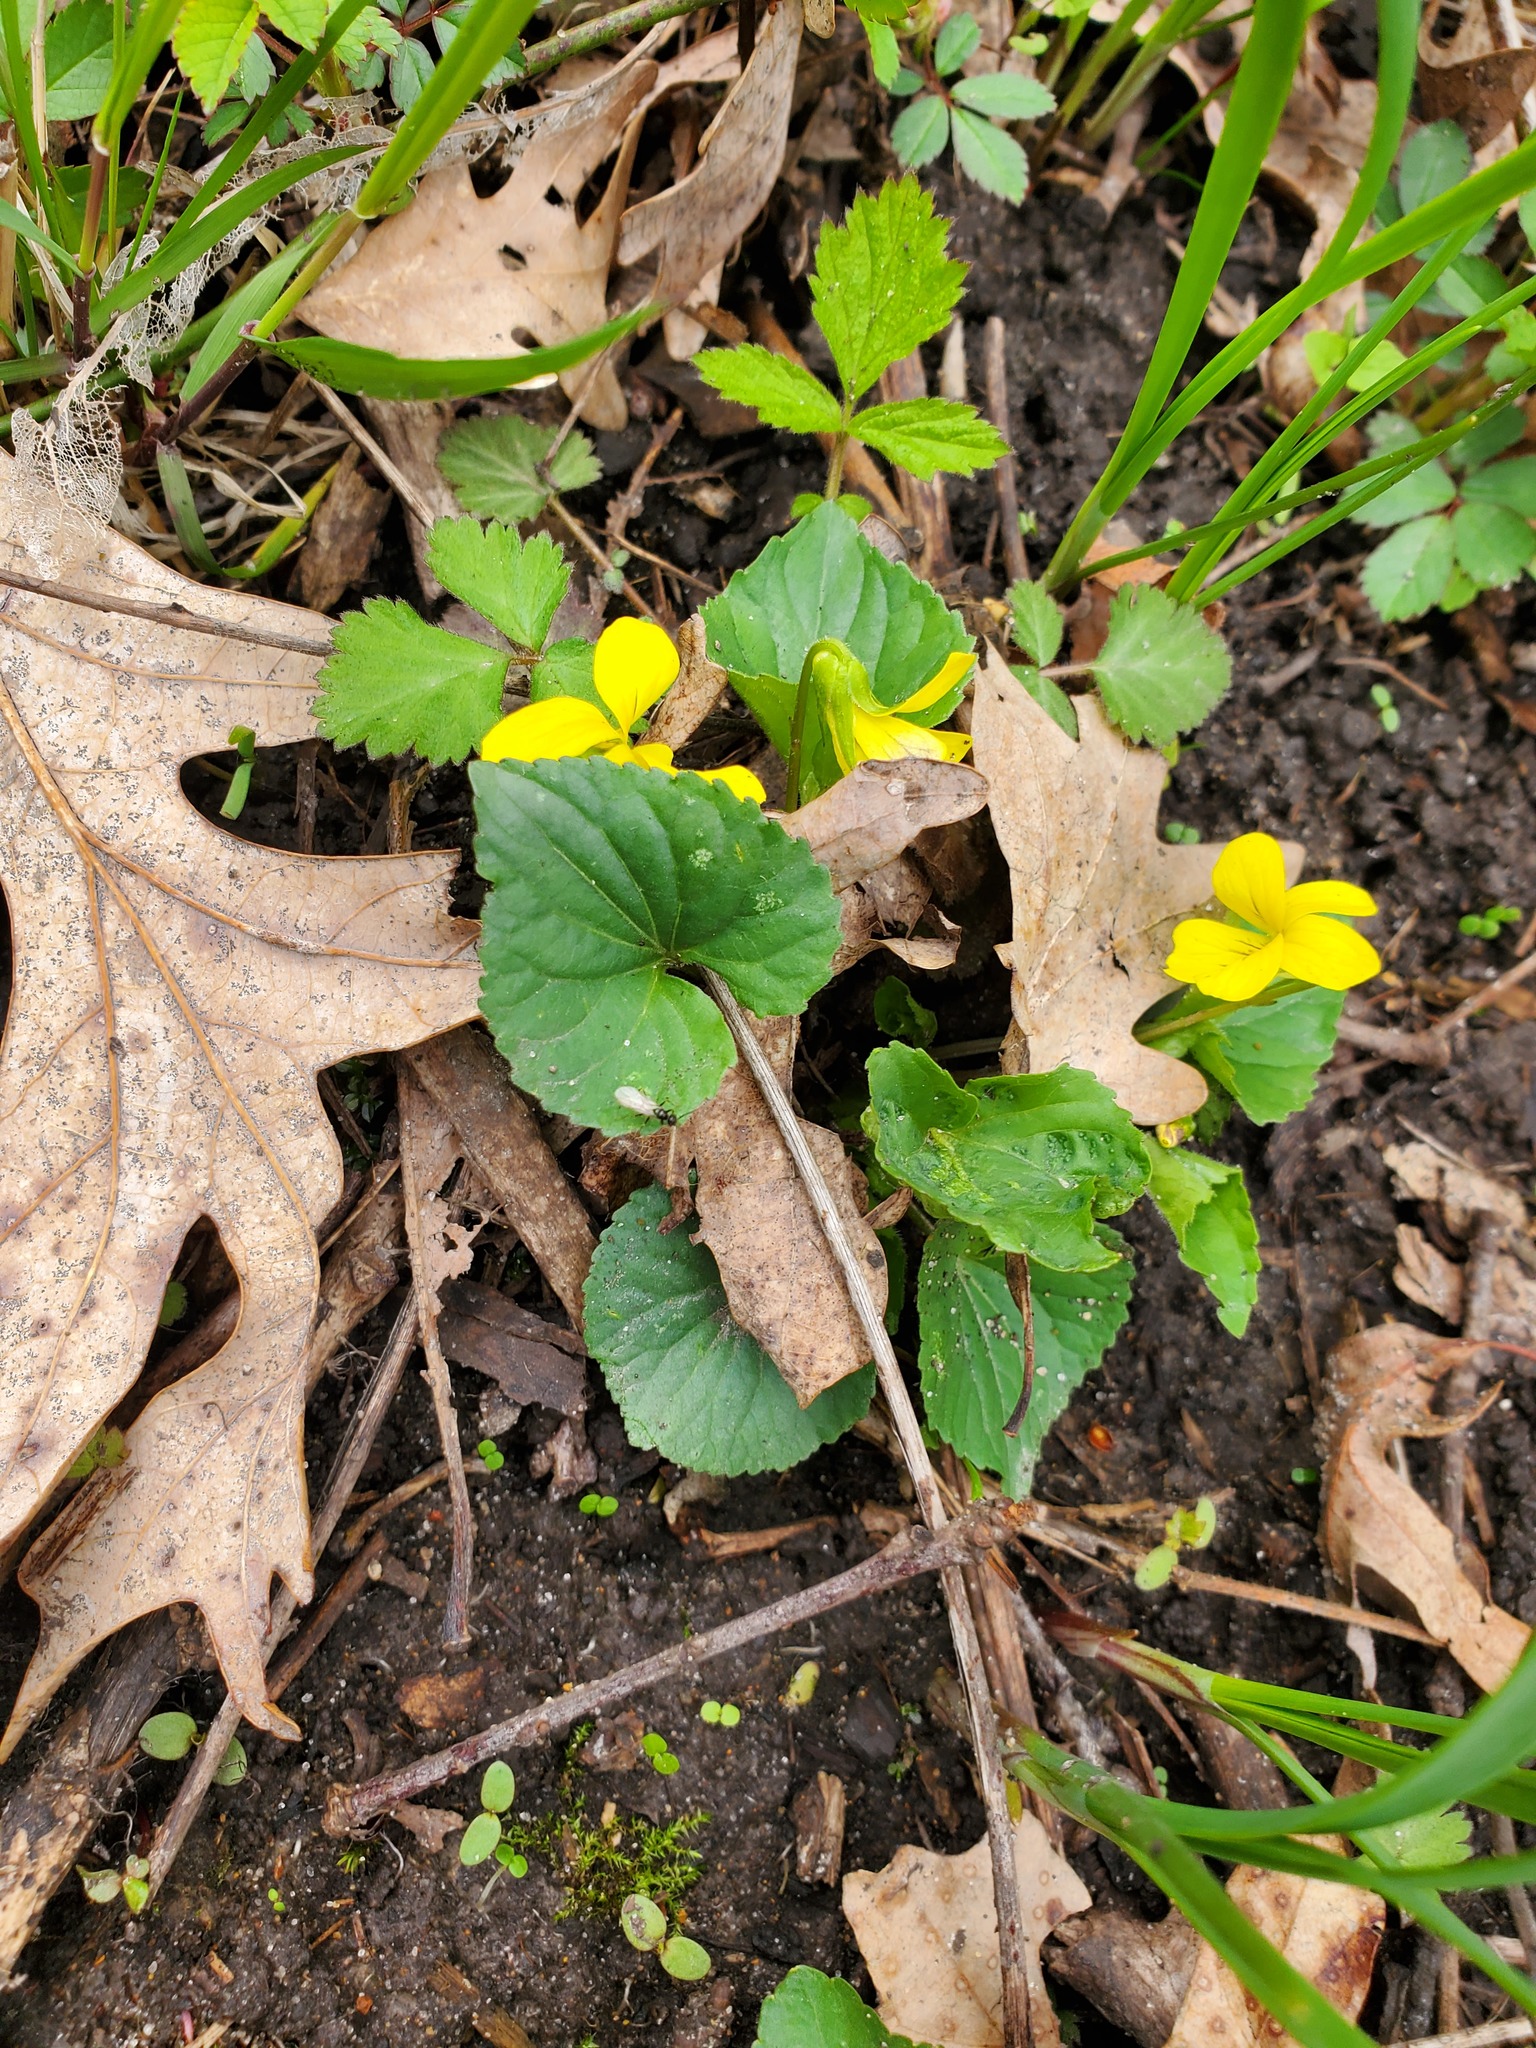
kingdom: Plantae
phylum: Tracheophyta
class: Magnoliopsida
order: Malpighiales
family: Violaceae
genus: Viola
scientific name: Viola eriocarpa
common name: Smooth yellow violet
